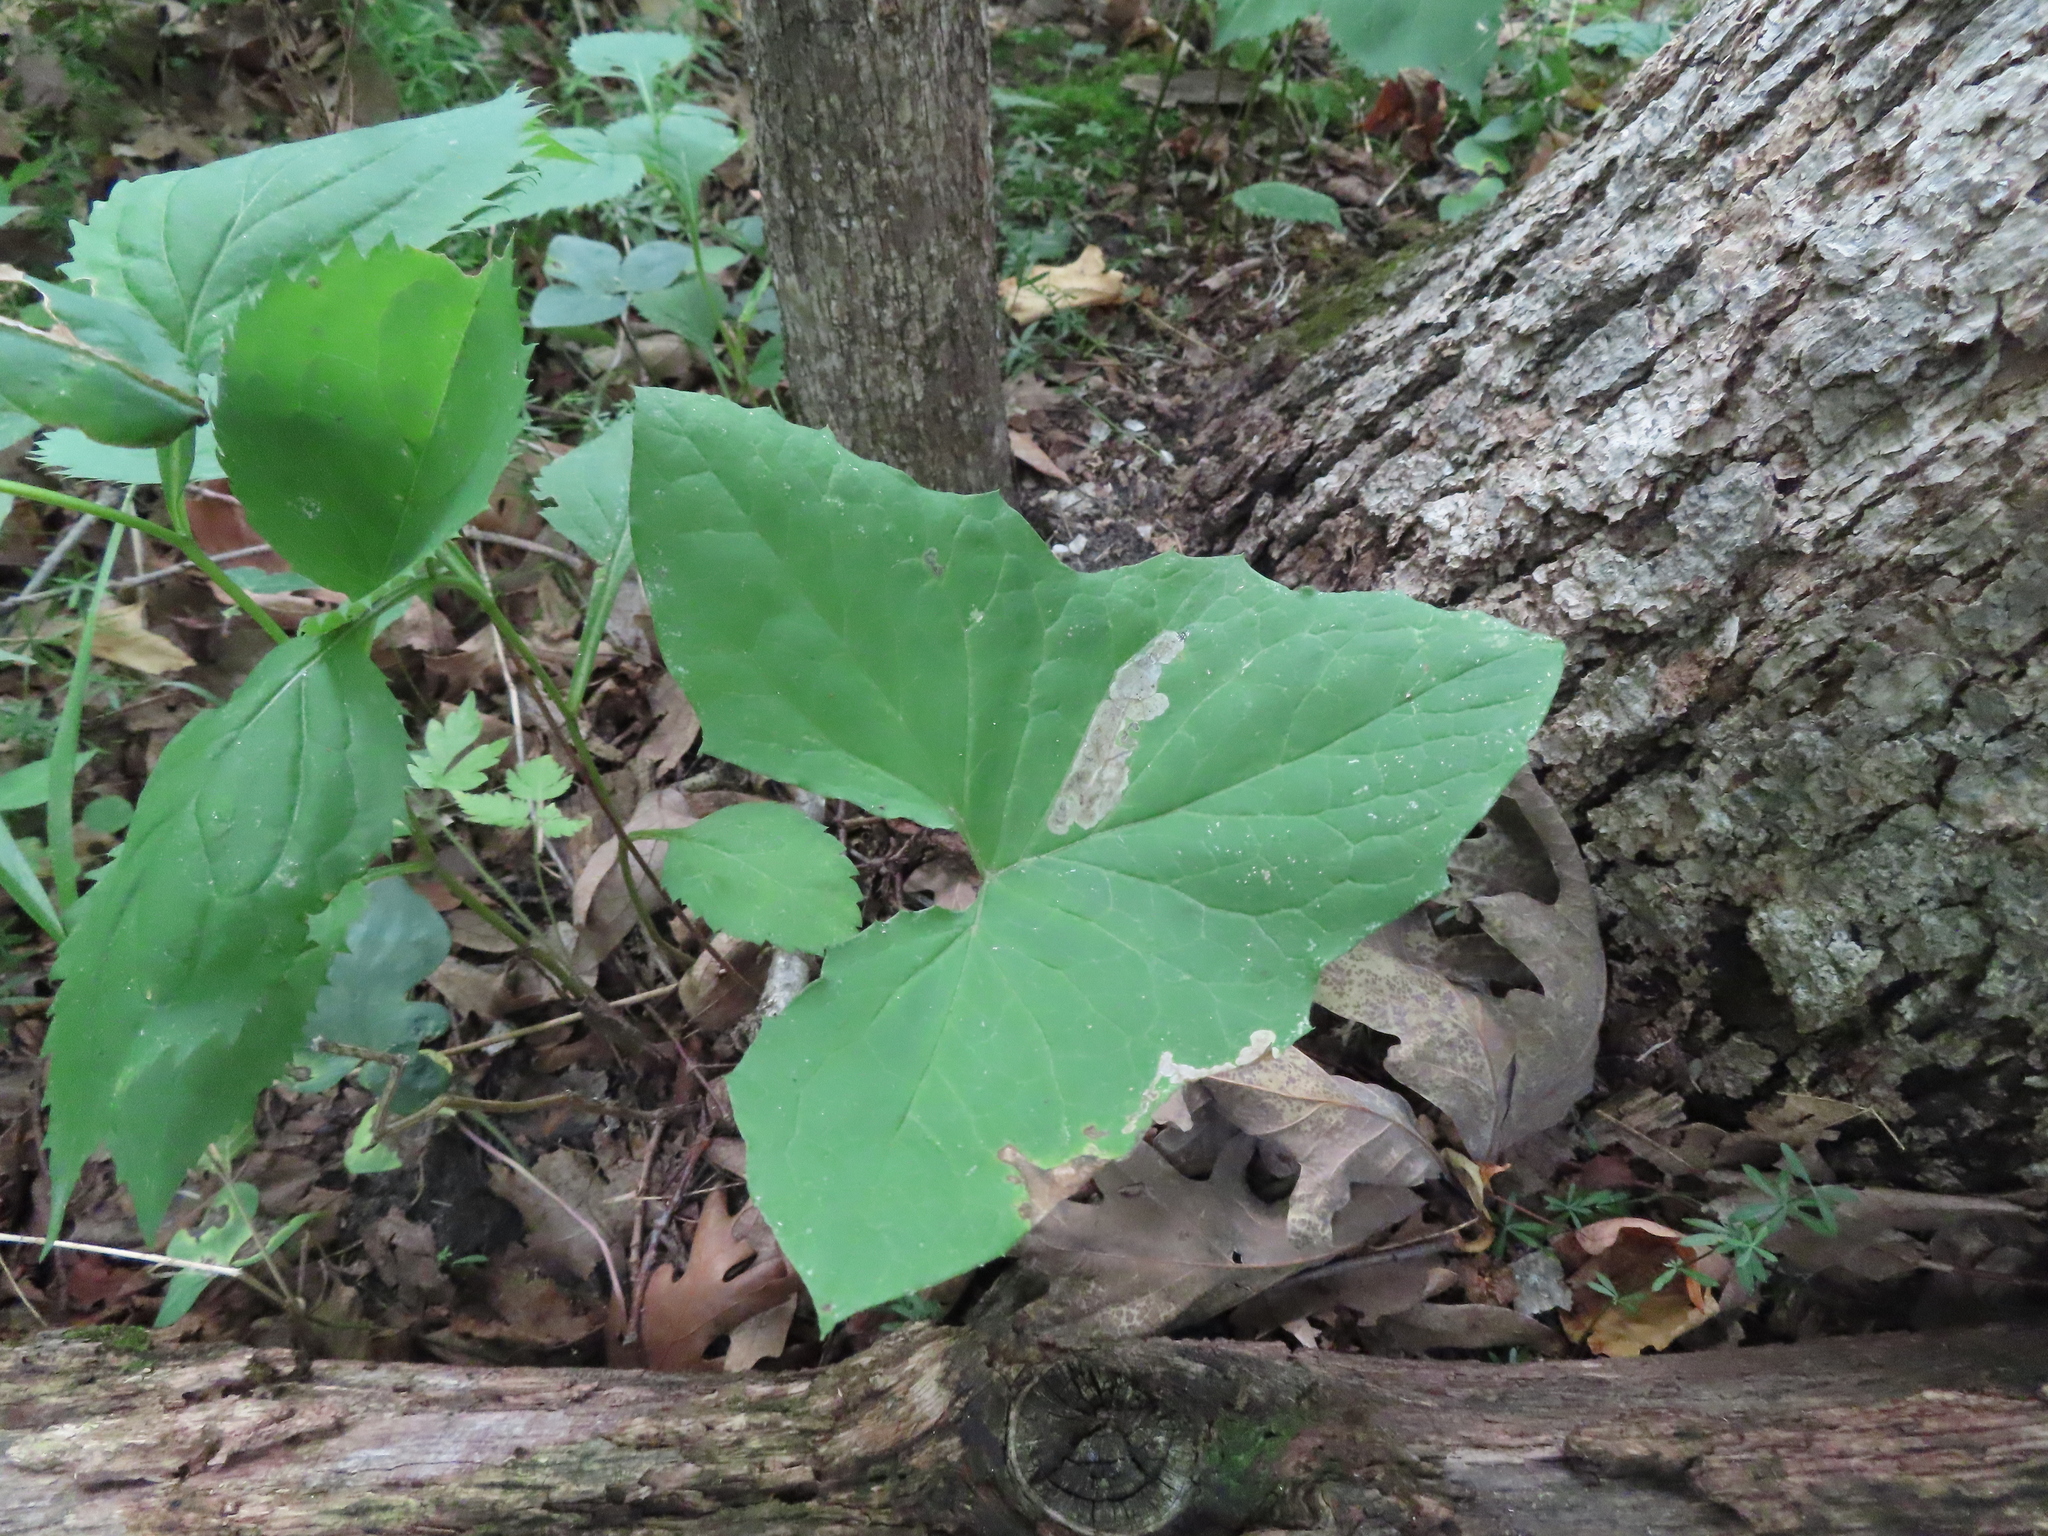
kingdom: Animalia
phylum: Arthropoda
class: Insecta
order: Diptera
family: Tephritidae
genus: Trypeta
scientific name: Trypeta flaveola
